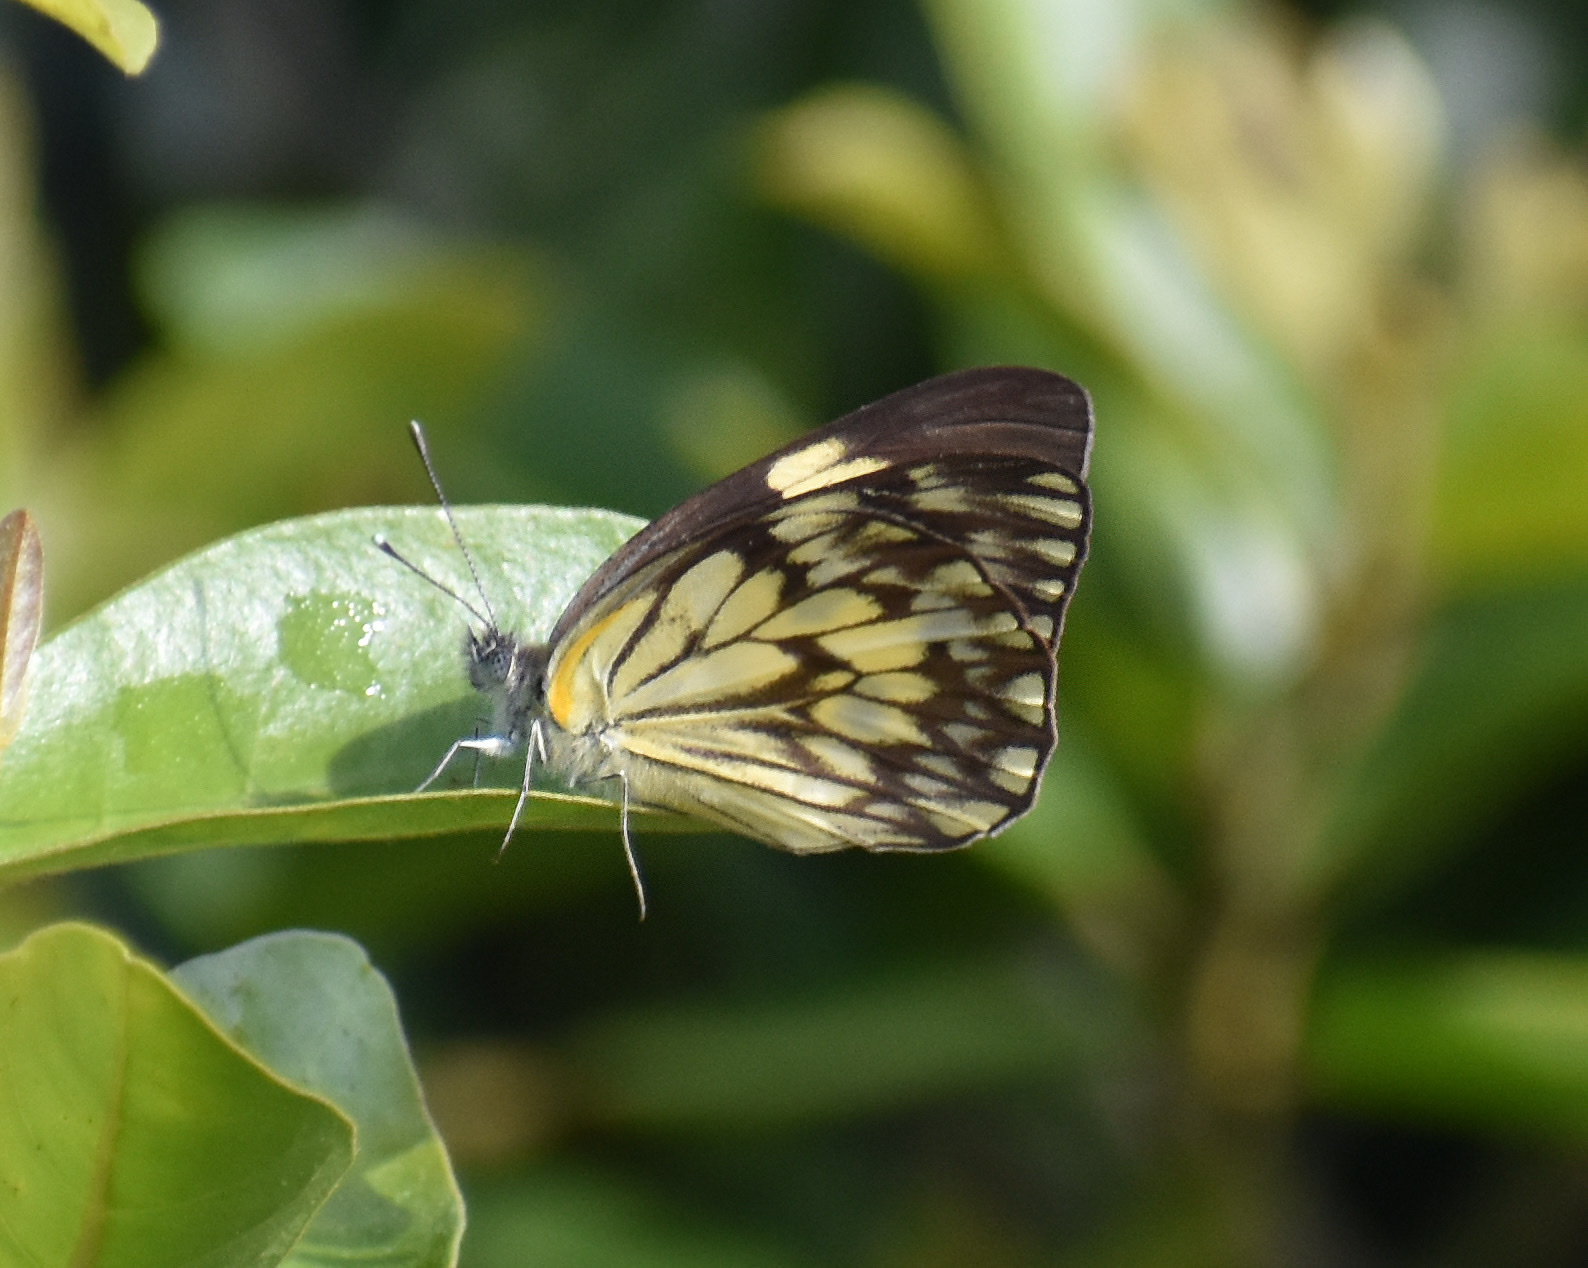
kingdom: Animalia
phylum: Arthropoda
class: Insecta
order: Lepidoptera
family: Pieridae
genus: Belenois
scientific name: Belenois gidica
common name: Pointed caper white
